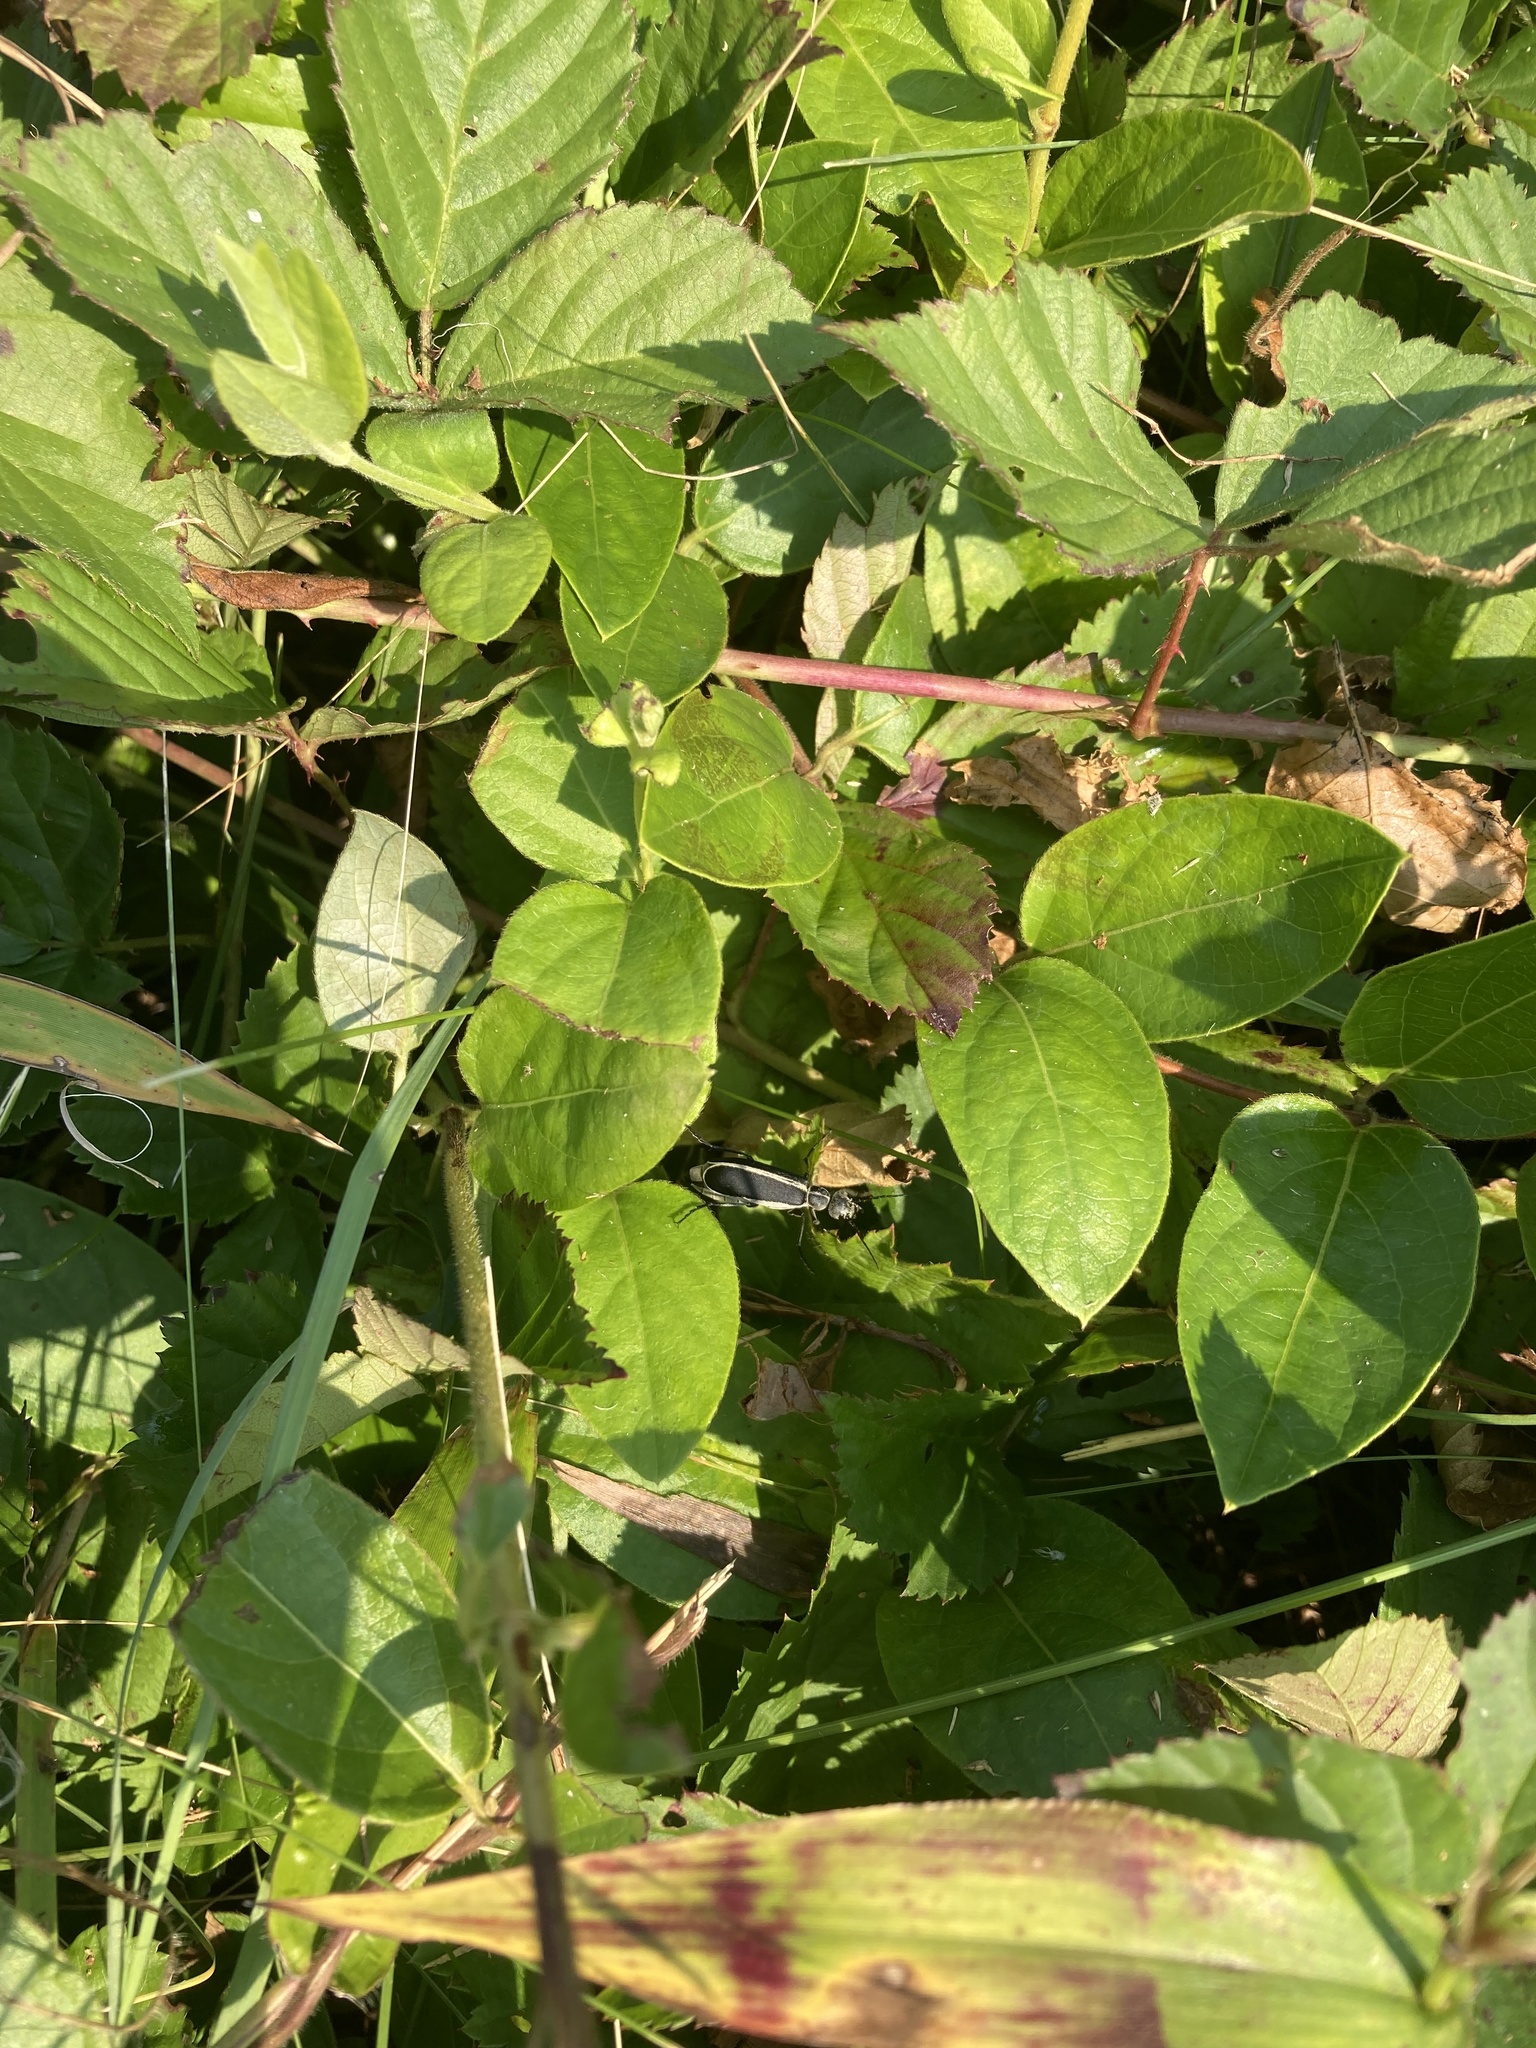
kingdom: Animalia
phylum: Arthropoda
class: Insecta
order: Coleoptera
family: Meloidae
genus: Epicauta
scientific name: Epicauta funebris
